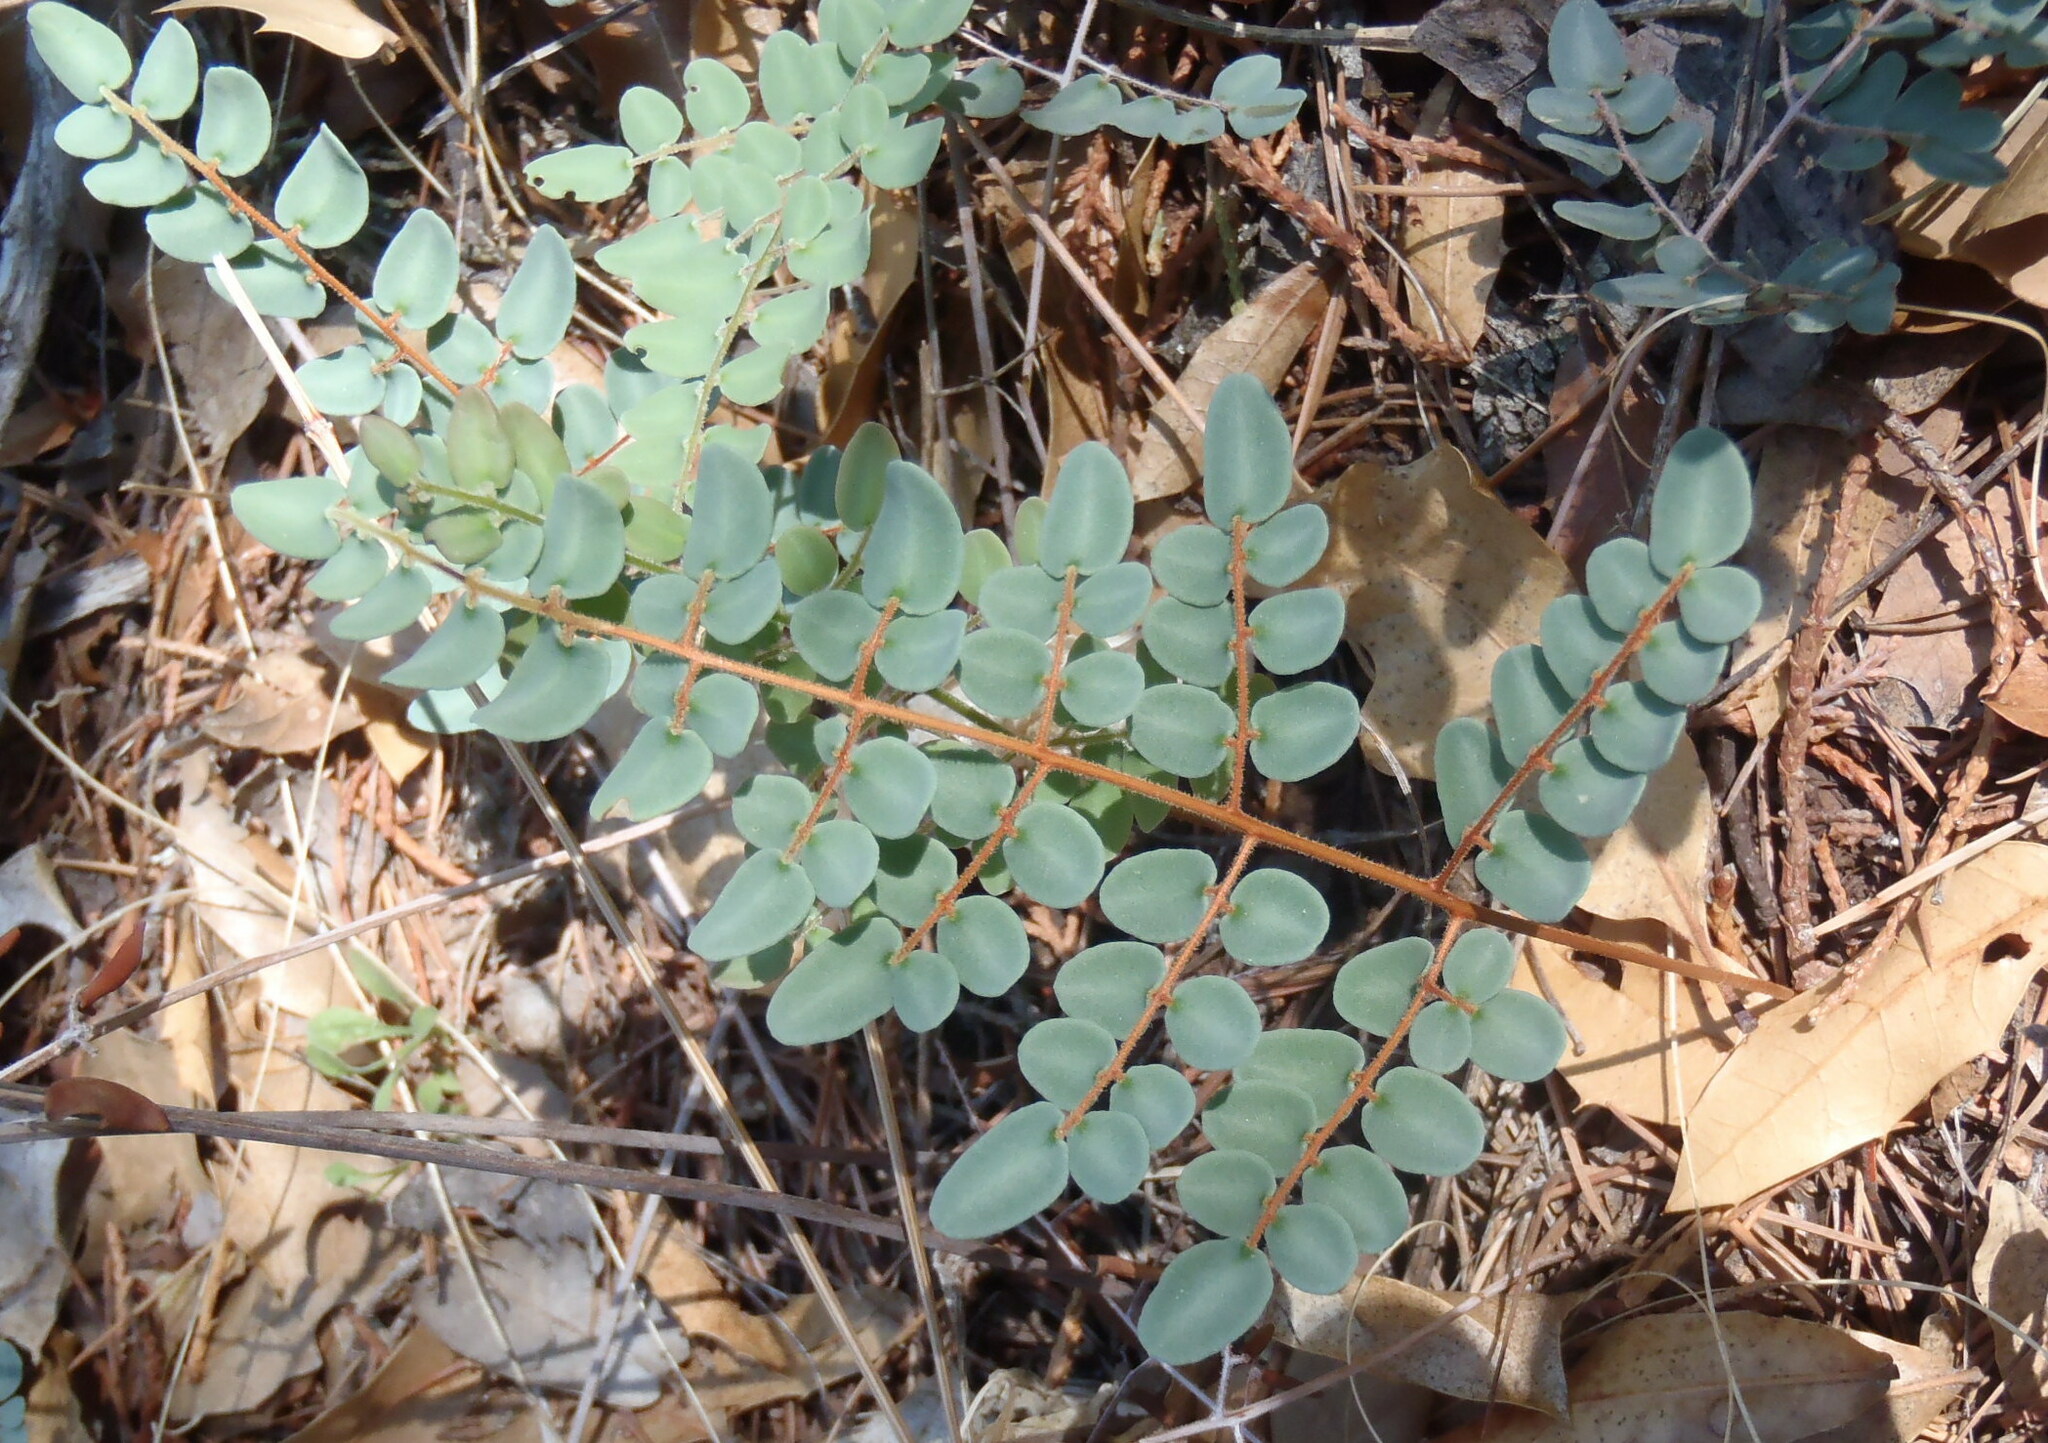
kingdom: Plantae
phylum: Tracheophyta
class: Polypodiopsida
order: Polypodiales
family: Pteridaceae
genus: Pellaea
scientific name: Pellaea intermedia
